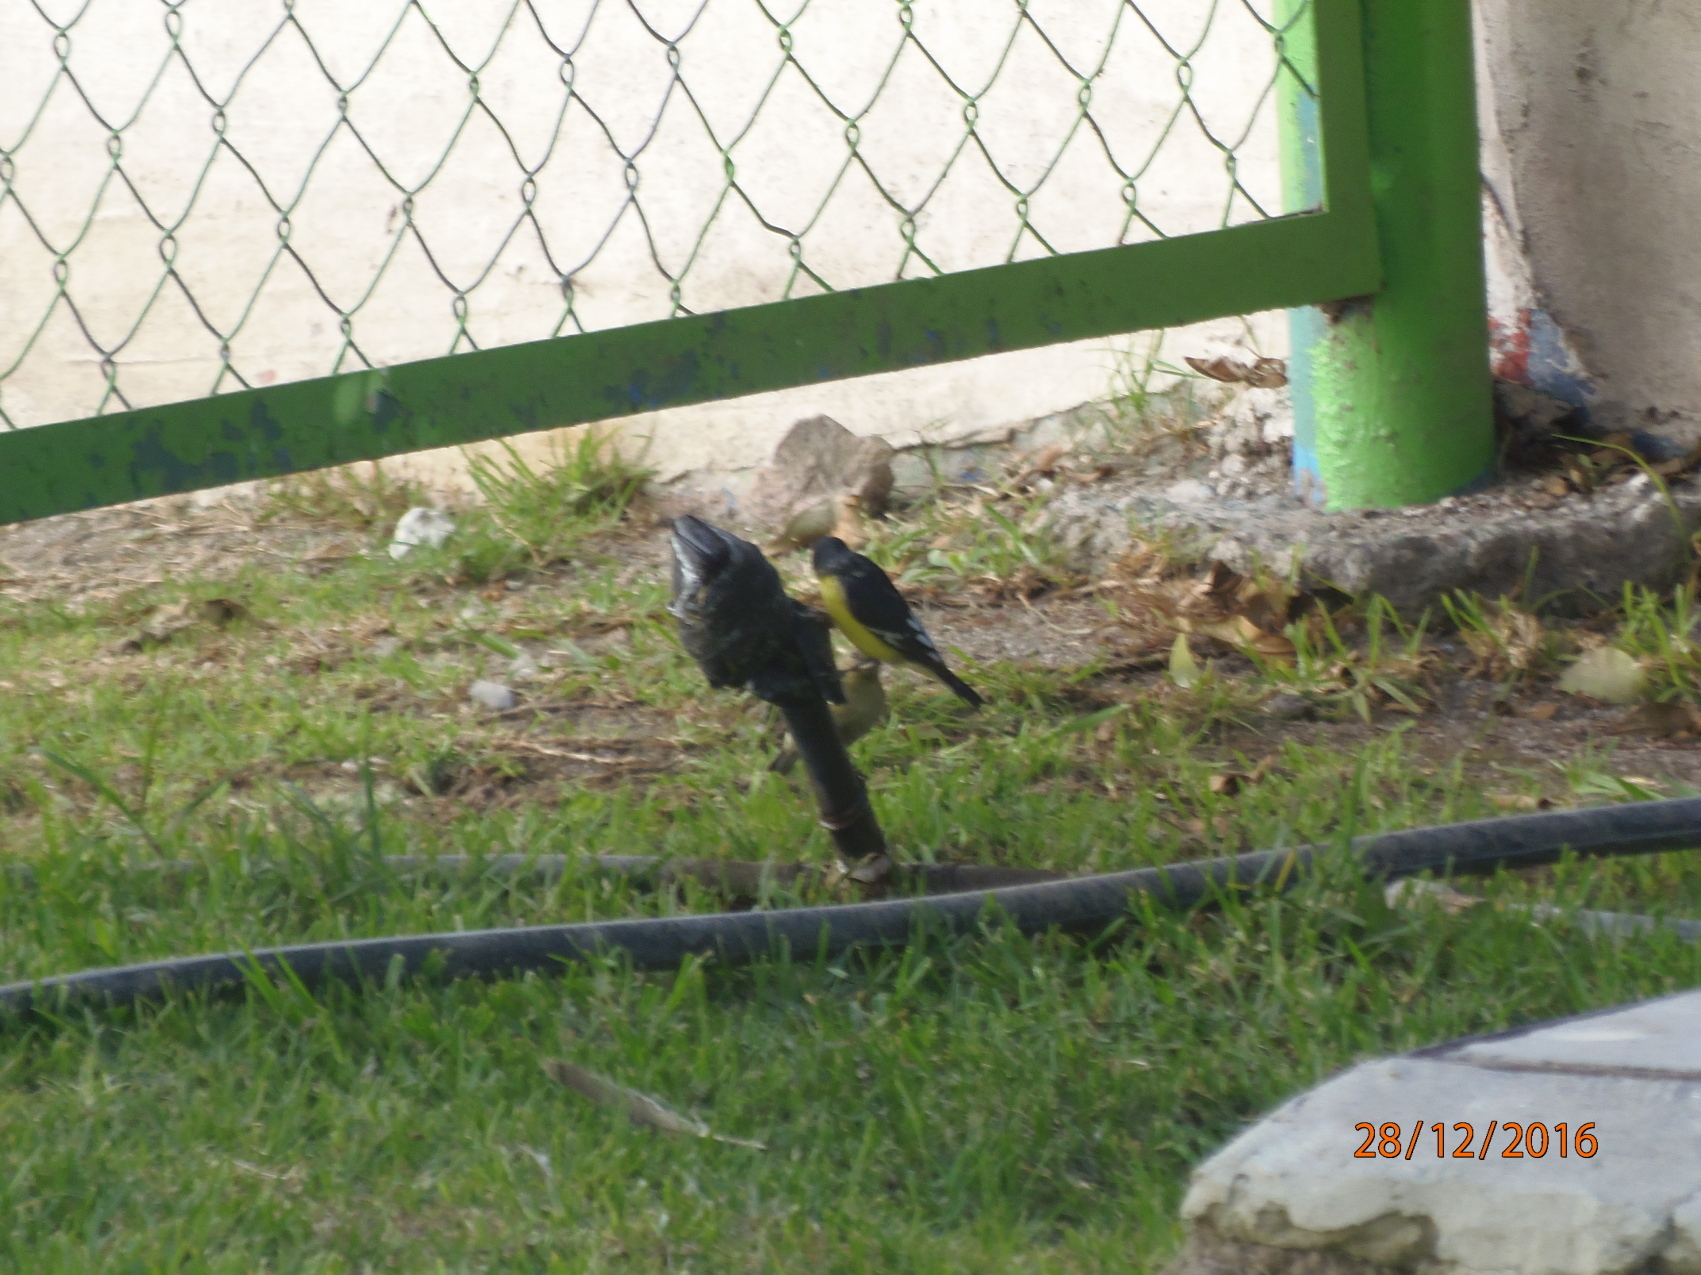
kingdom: Animalia
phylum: Chordata
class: Aves
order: Passeriformes
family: Fringillidae
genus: Spinus
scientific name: Spinus psaltria
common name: Lesser goldfinch
